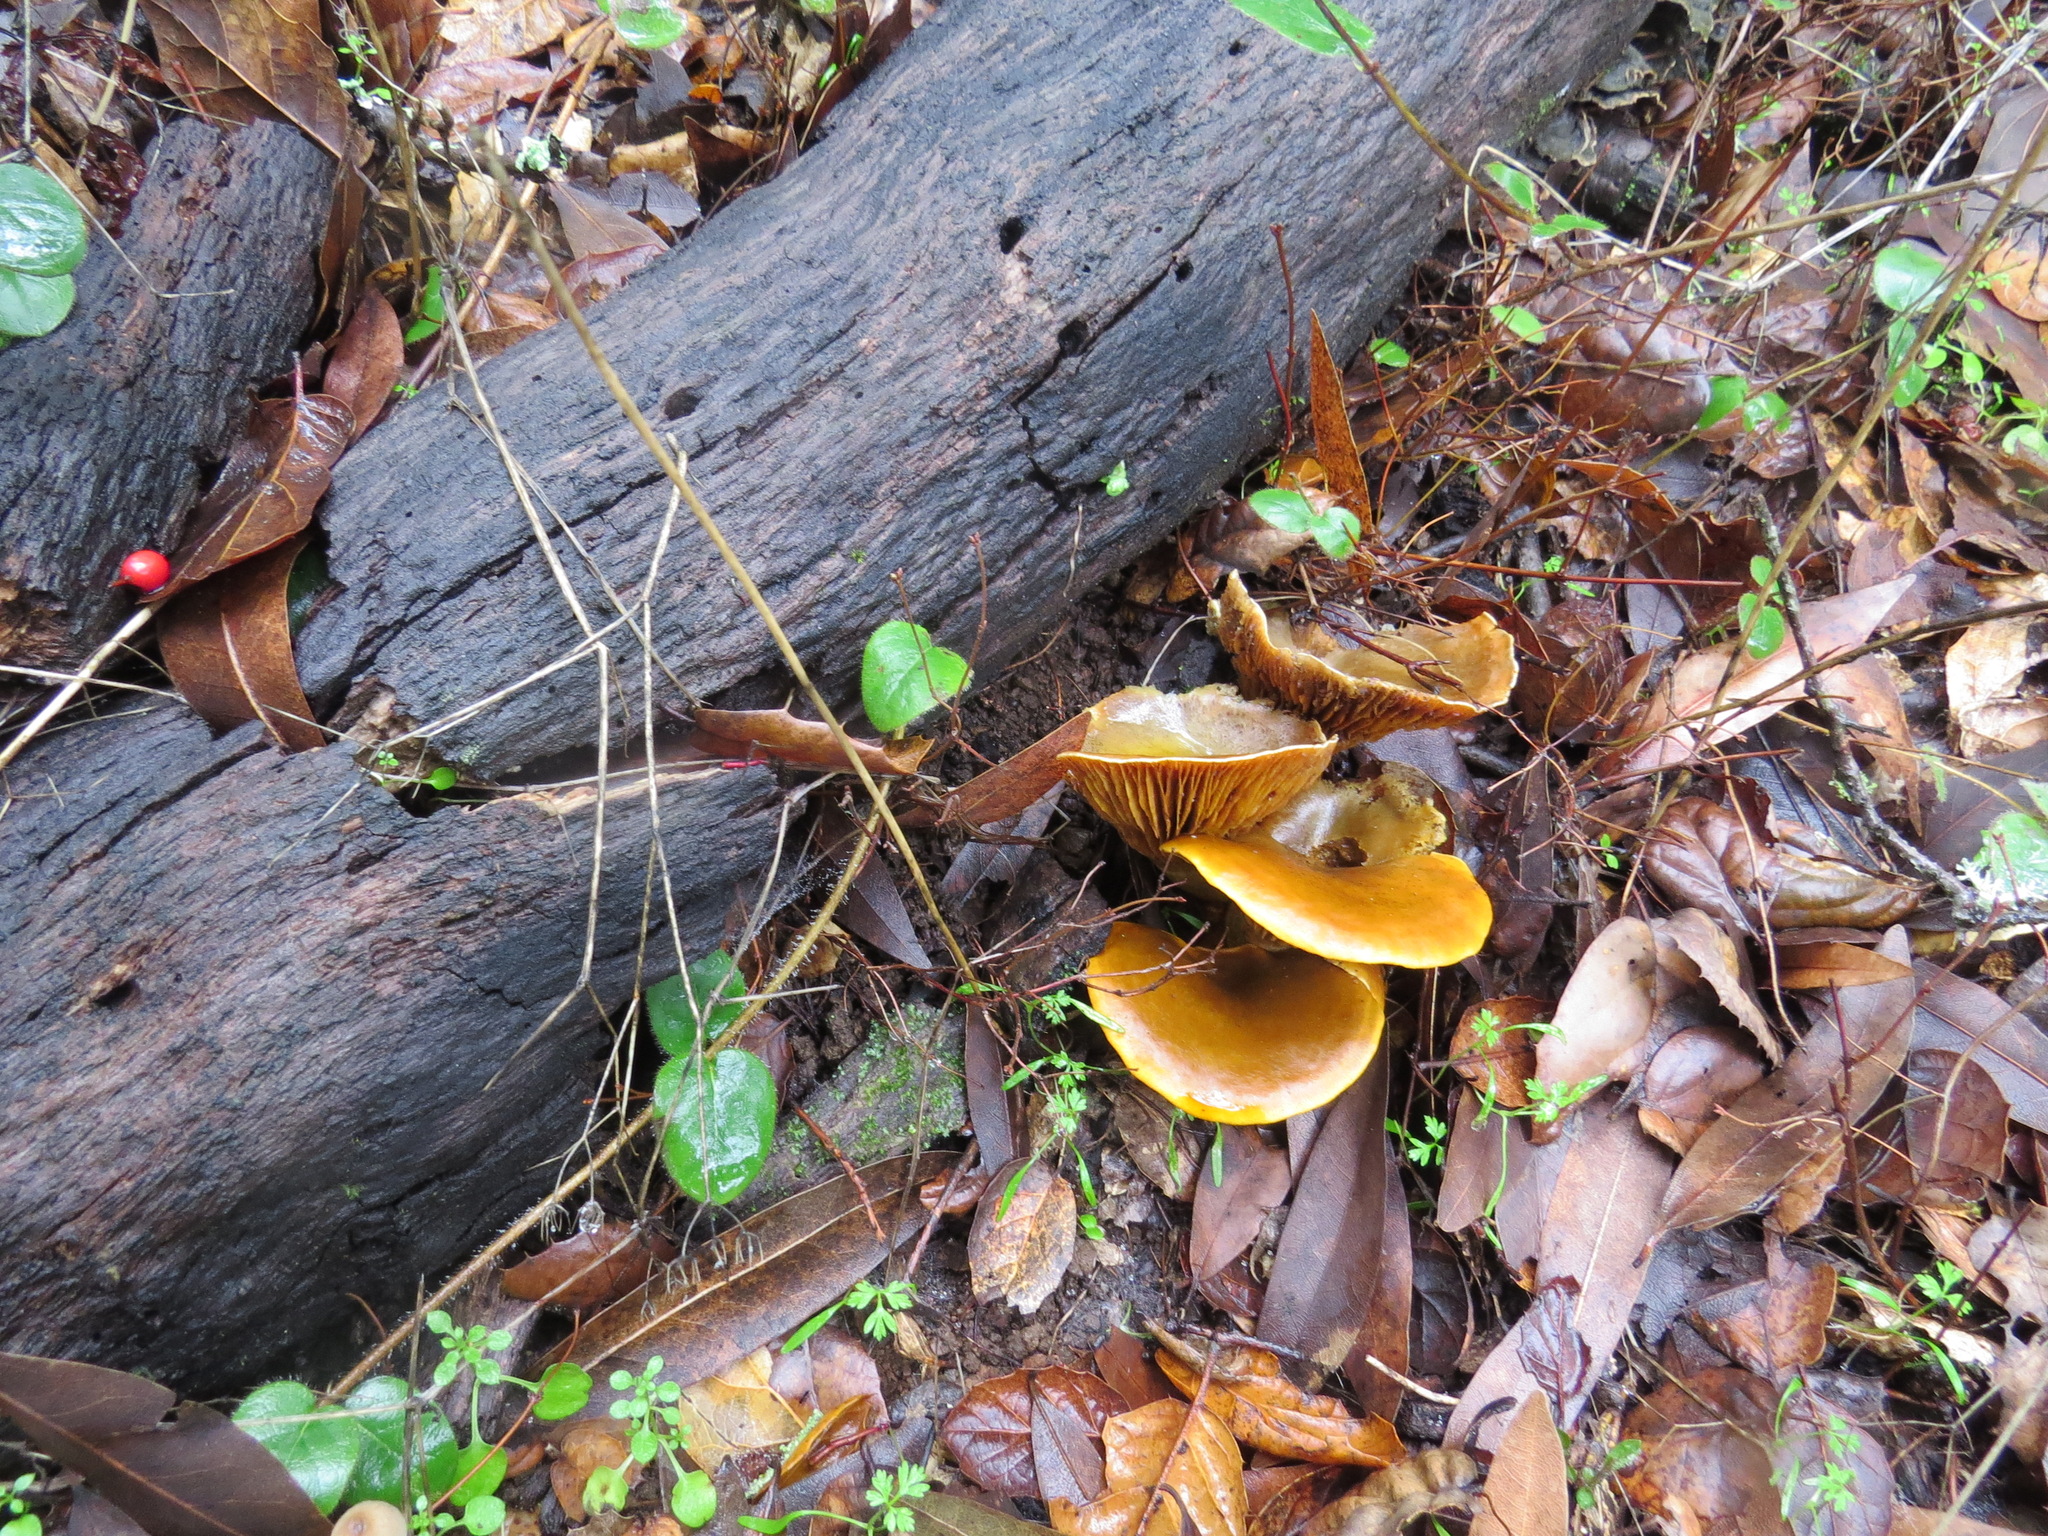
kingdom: Fungi
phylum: Basidiomycota
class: Agaricomycetes
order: Agaricales
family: Omphalotaceae
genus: Omphalotus
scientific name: Omphalotus olivascens
